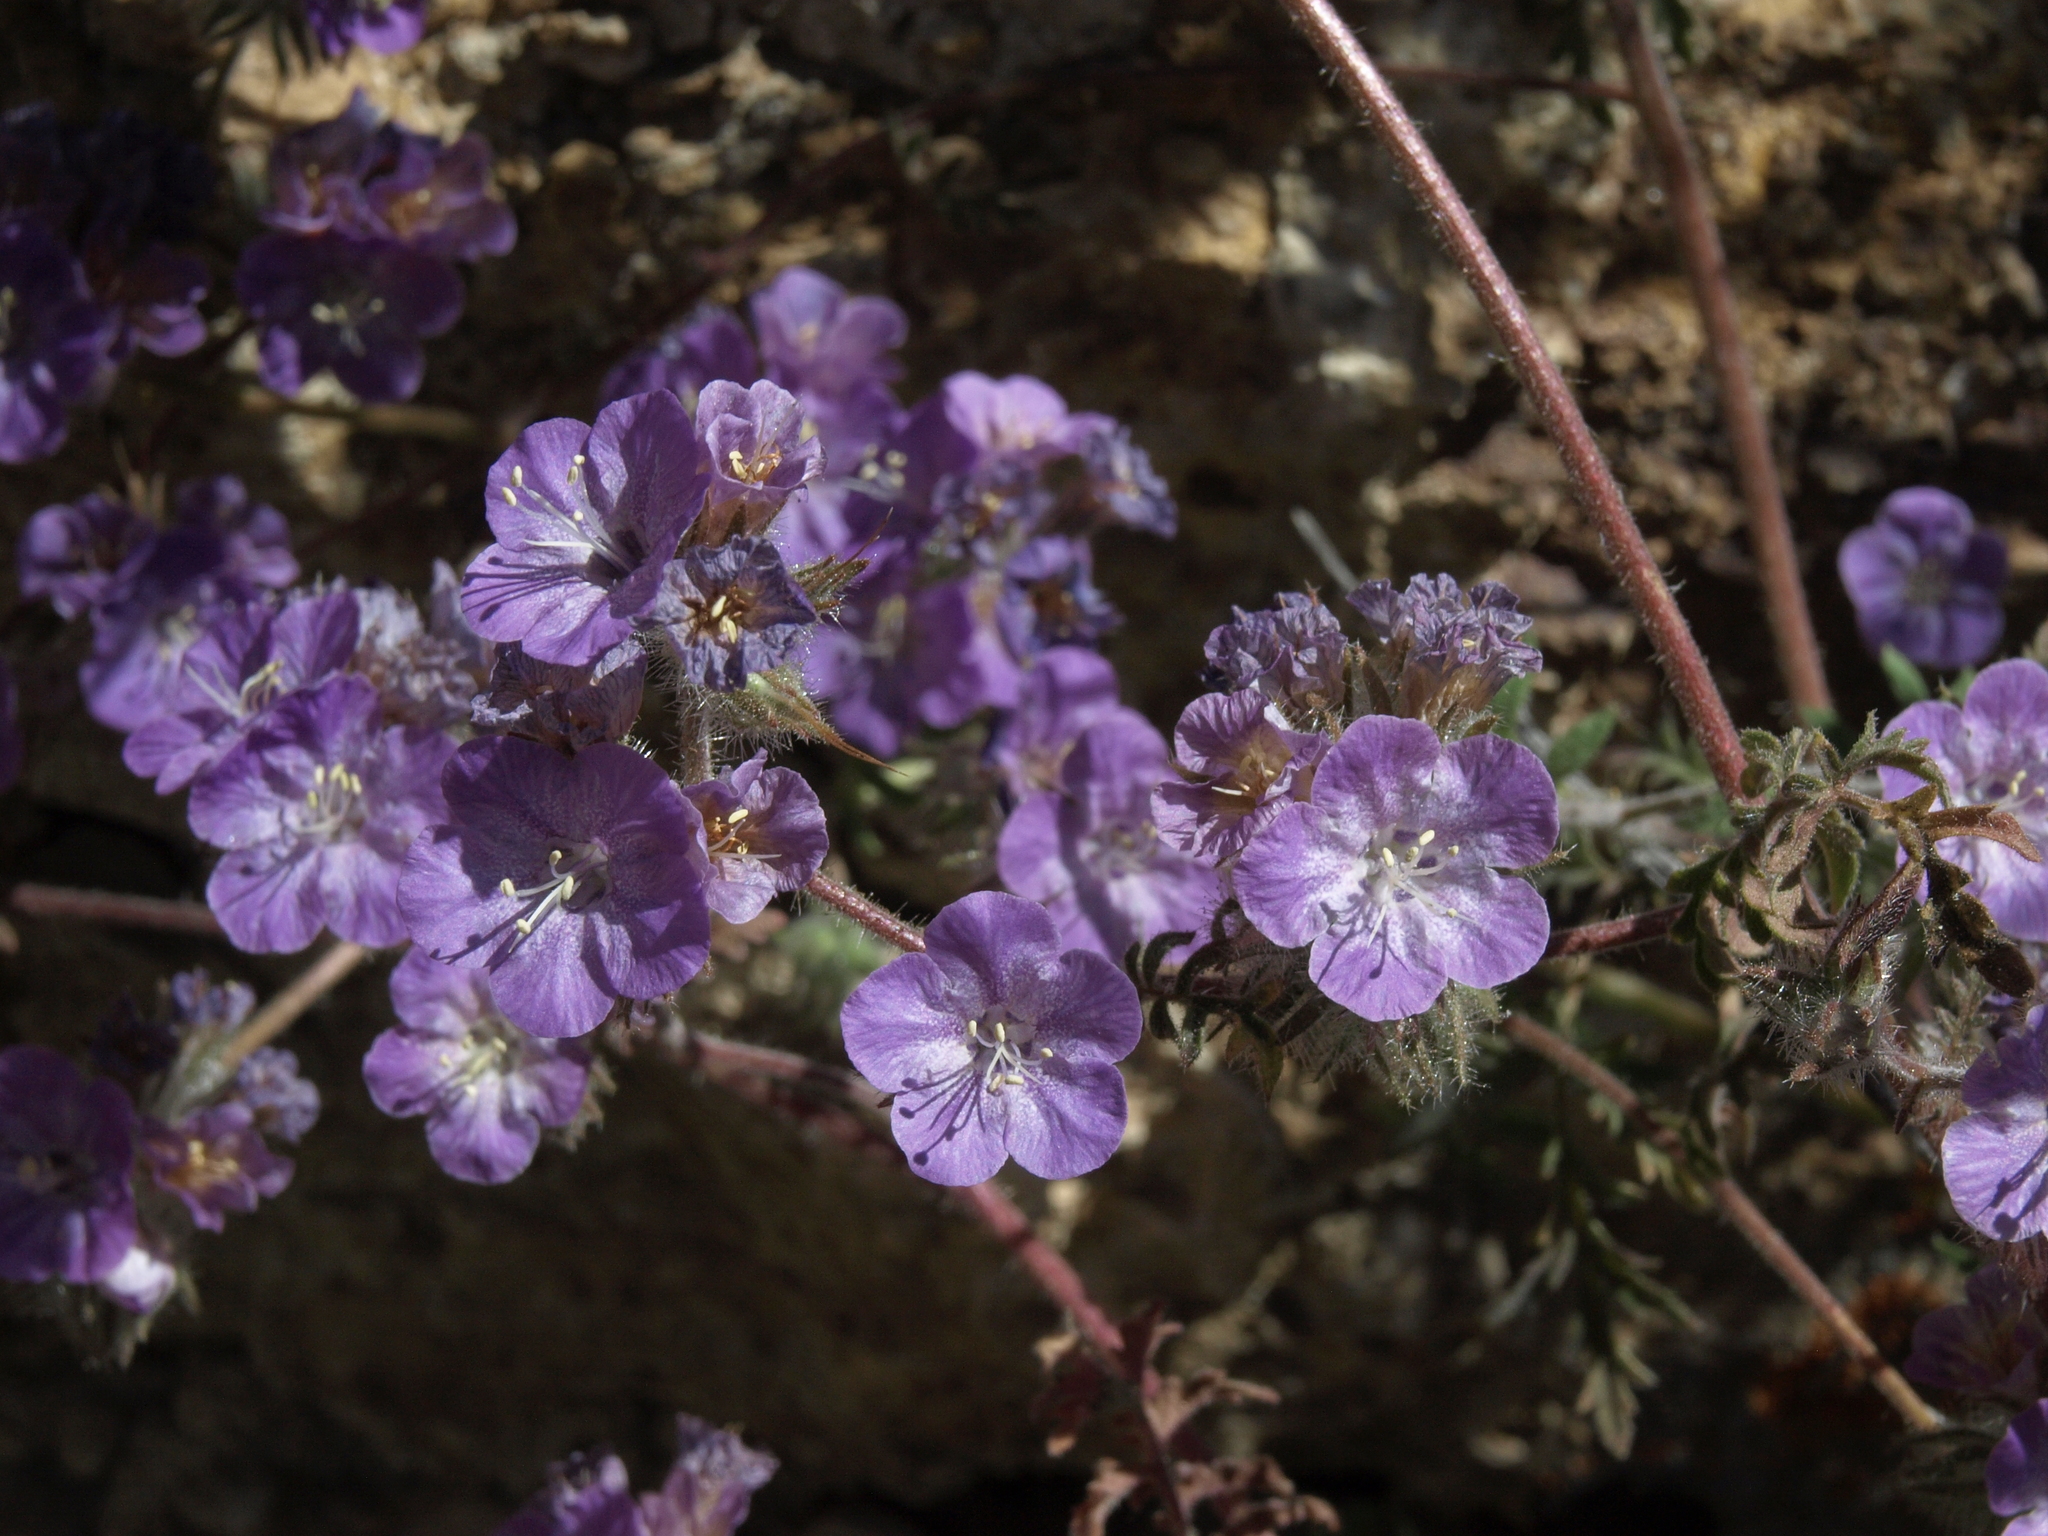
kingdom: Plantae
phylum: Tracheophyta
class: Magnoliopsida
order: Boraginales
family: Hydrophyllaceae
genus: Phacelia
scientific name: Phacelia vallis-mortae
